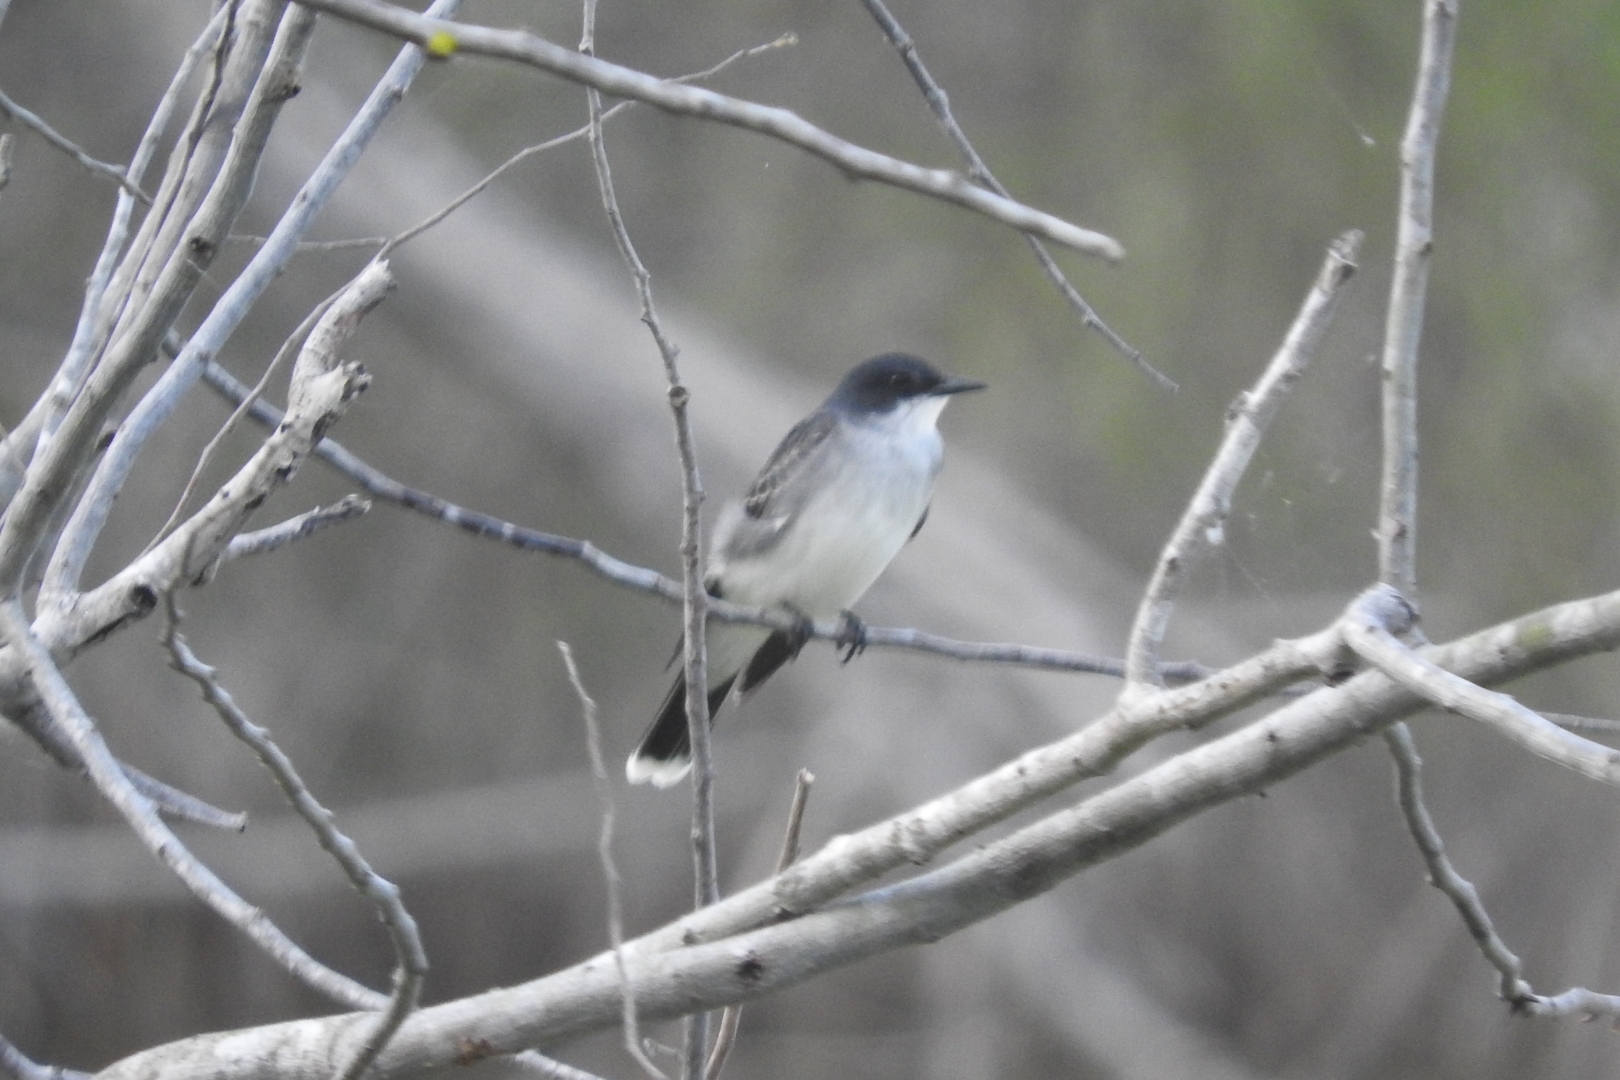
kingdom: Animalia
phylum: Chordata
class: Aves
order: Passeriformes
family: Tyrannidae
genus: Tyrannus
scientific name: Tyrannus tyrannus
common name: Eastern kingbird
